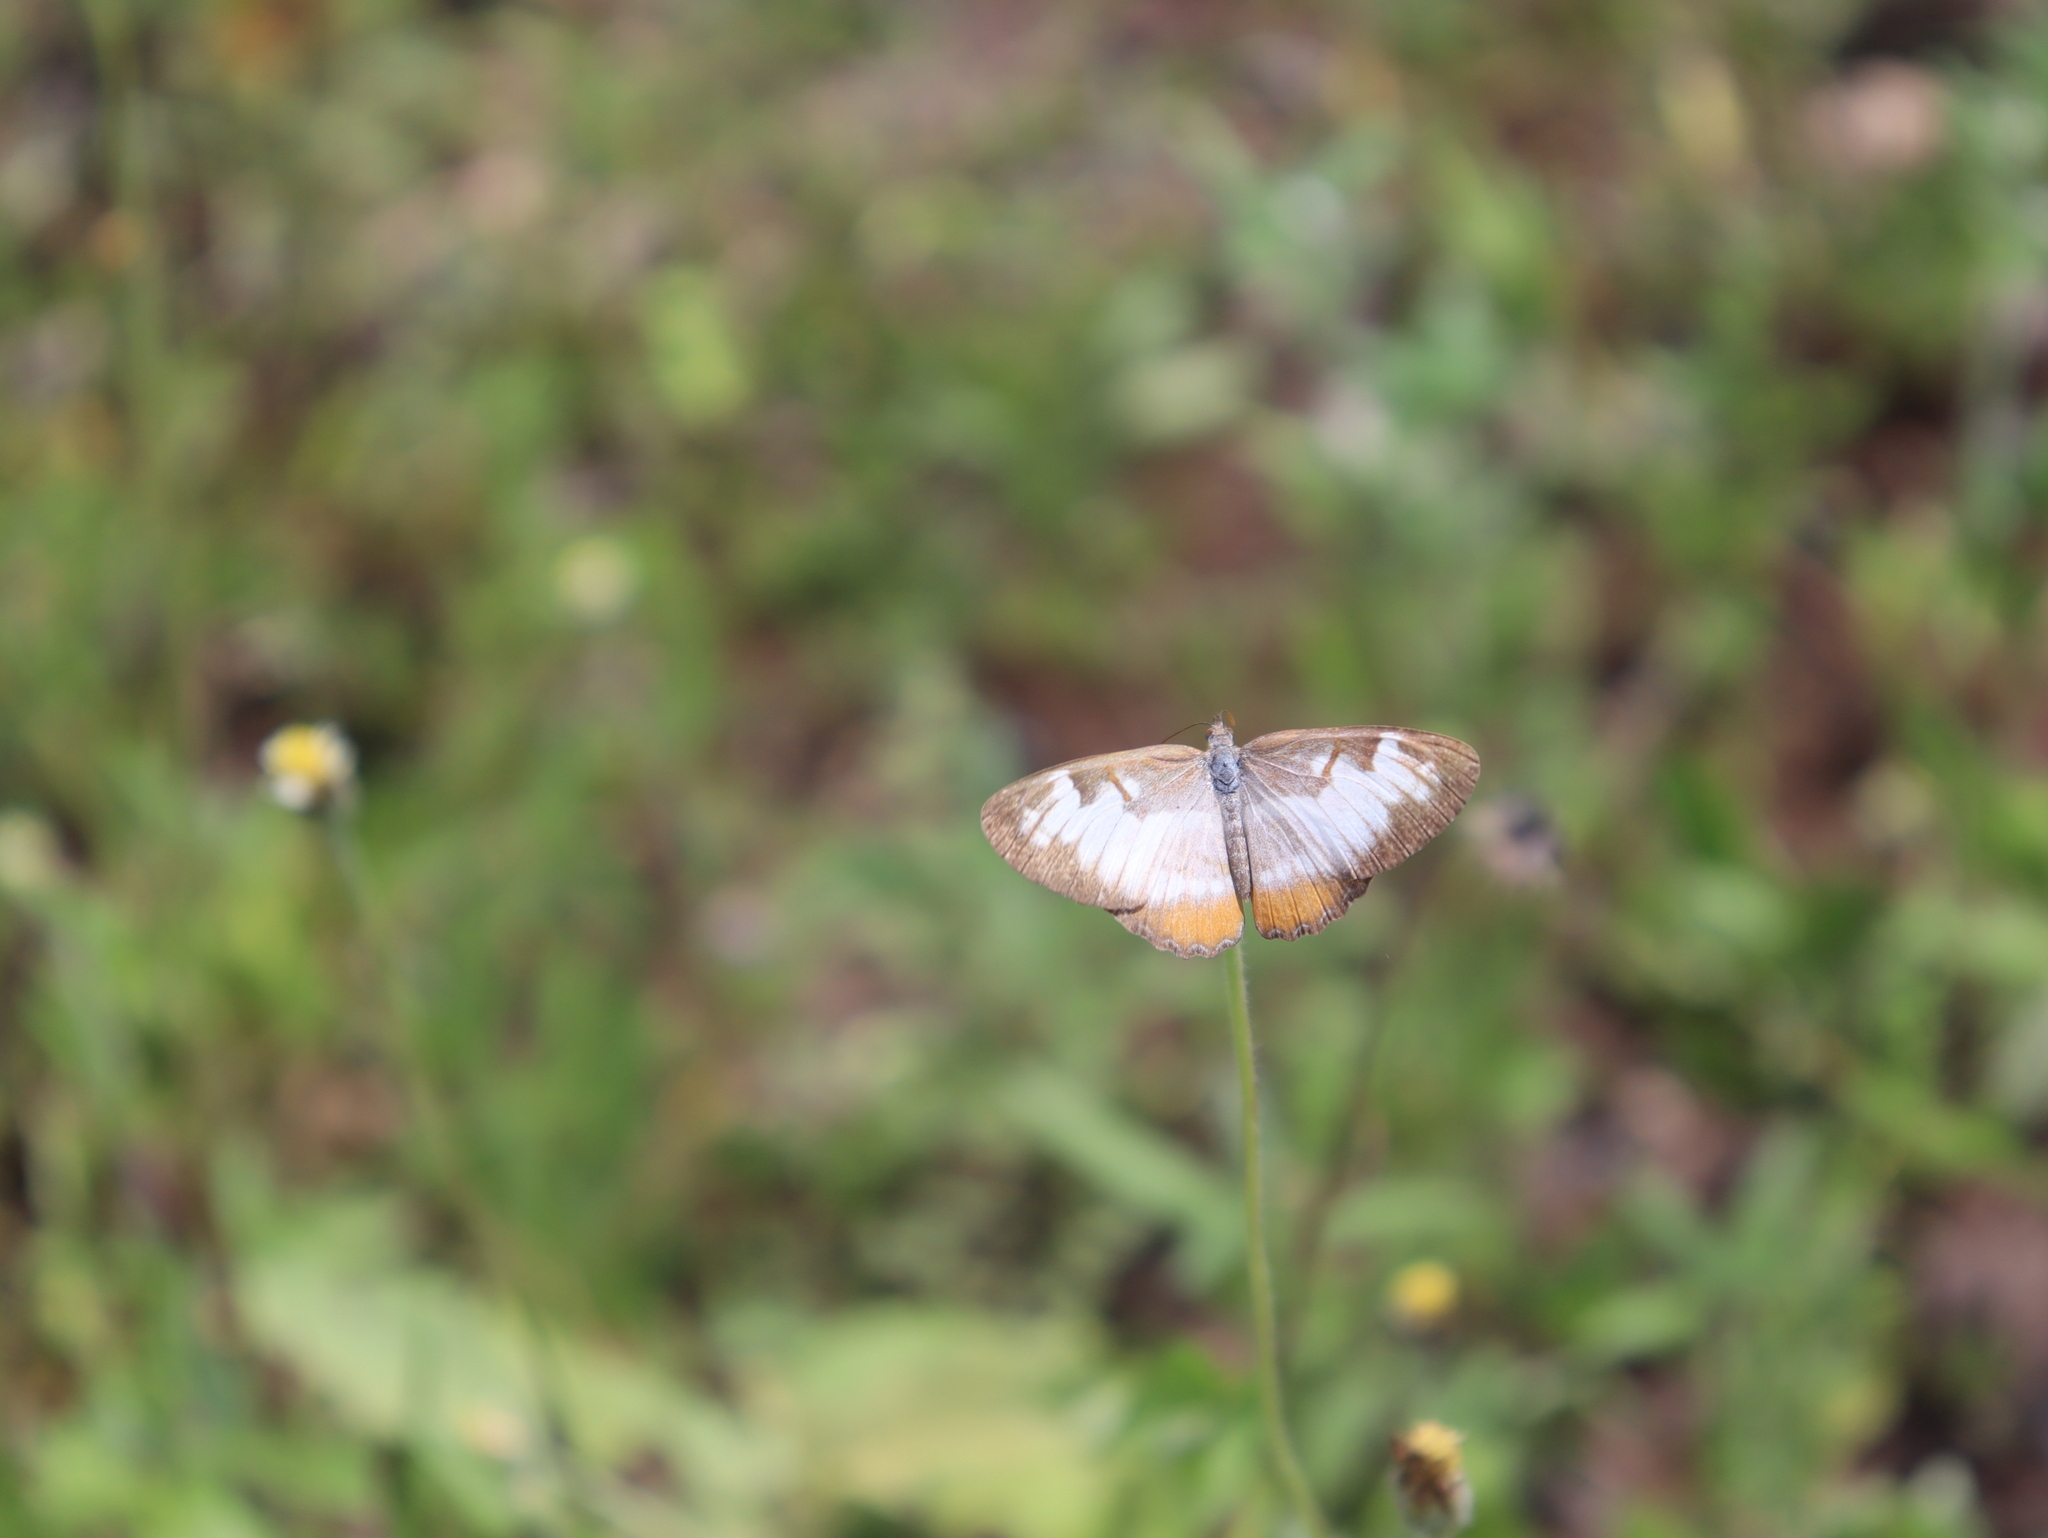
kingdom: Animalia
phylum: Arthropoda
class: Insecta
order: Lepidoptera
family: Nymphalidae
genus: Mestra
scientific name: Mestra amymone
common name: Common mestra
